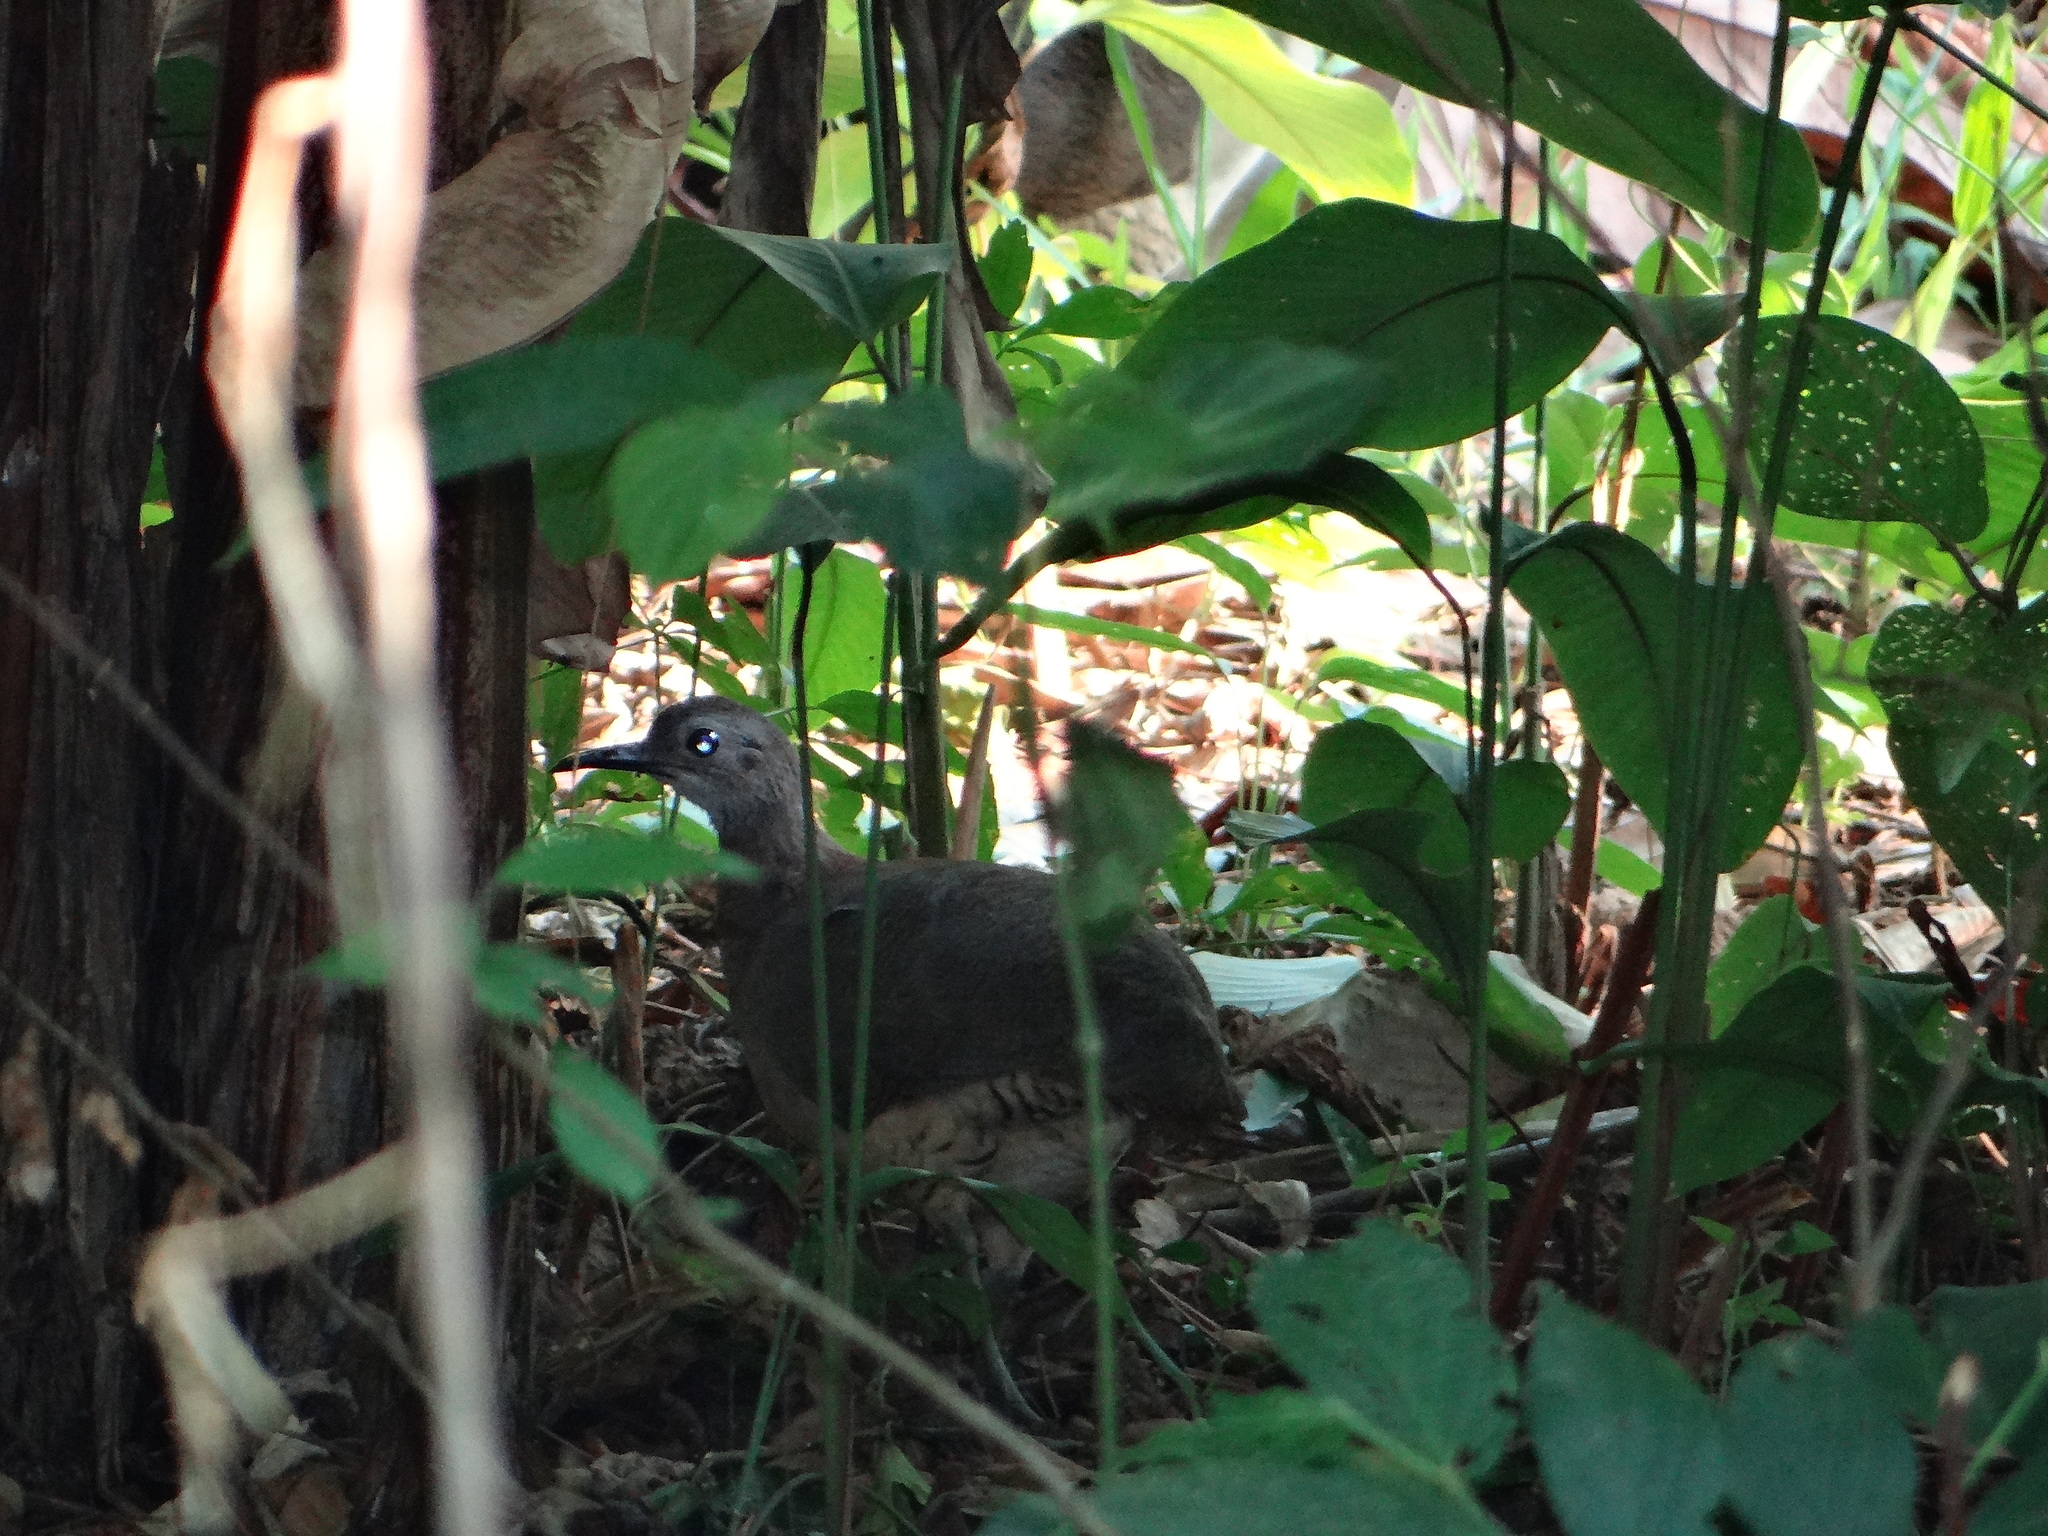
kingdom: Animalia
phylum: Chordata
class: Aves
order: Tinamiformes
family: Tinamidae
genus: Crypturellus
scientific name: Crypturellus undulatus
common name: Undulated tinamou
